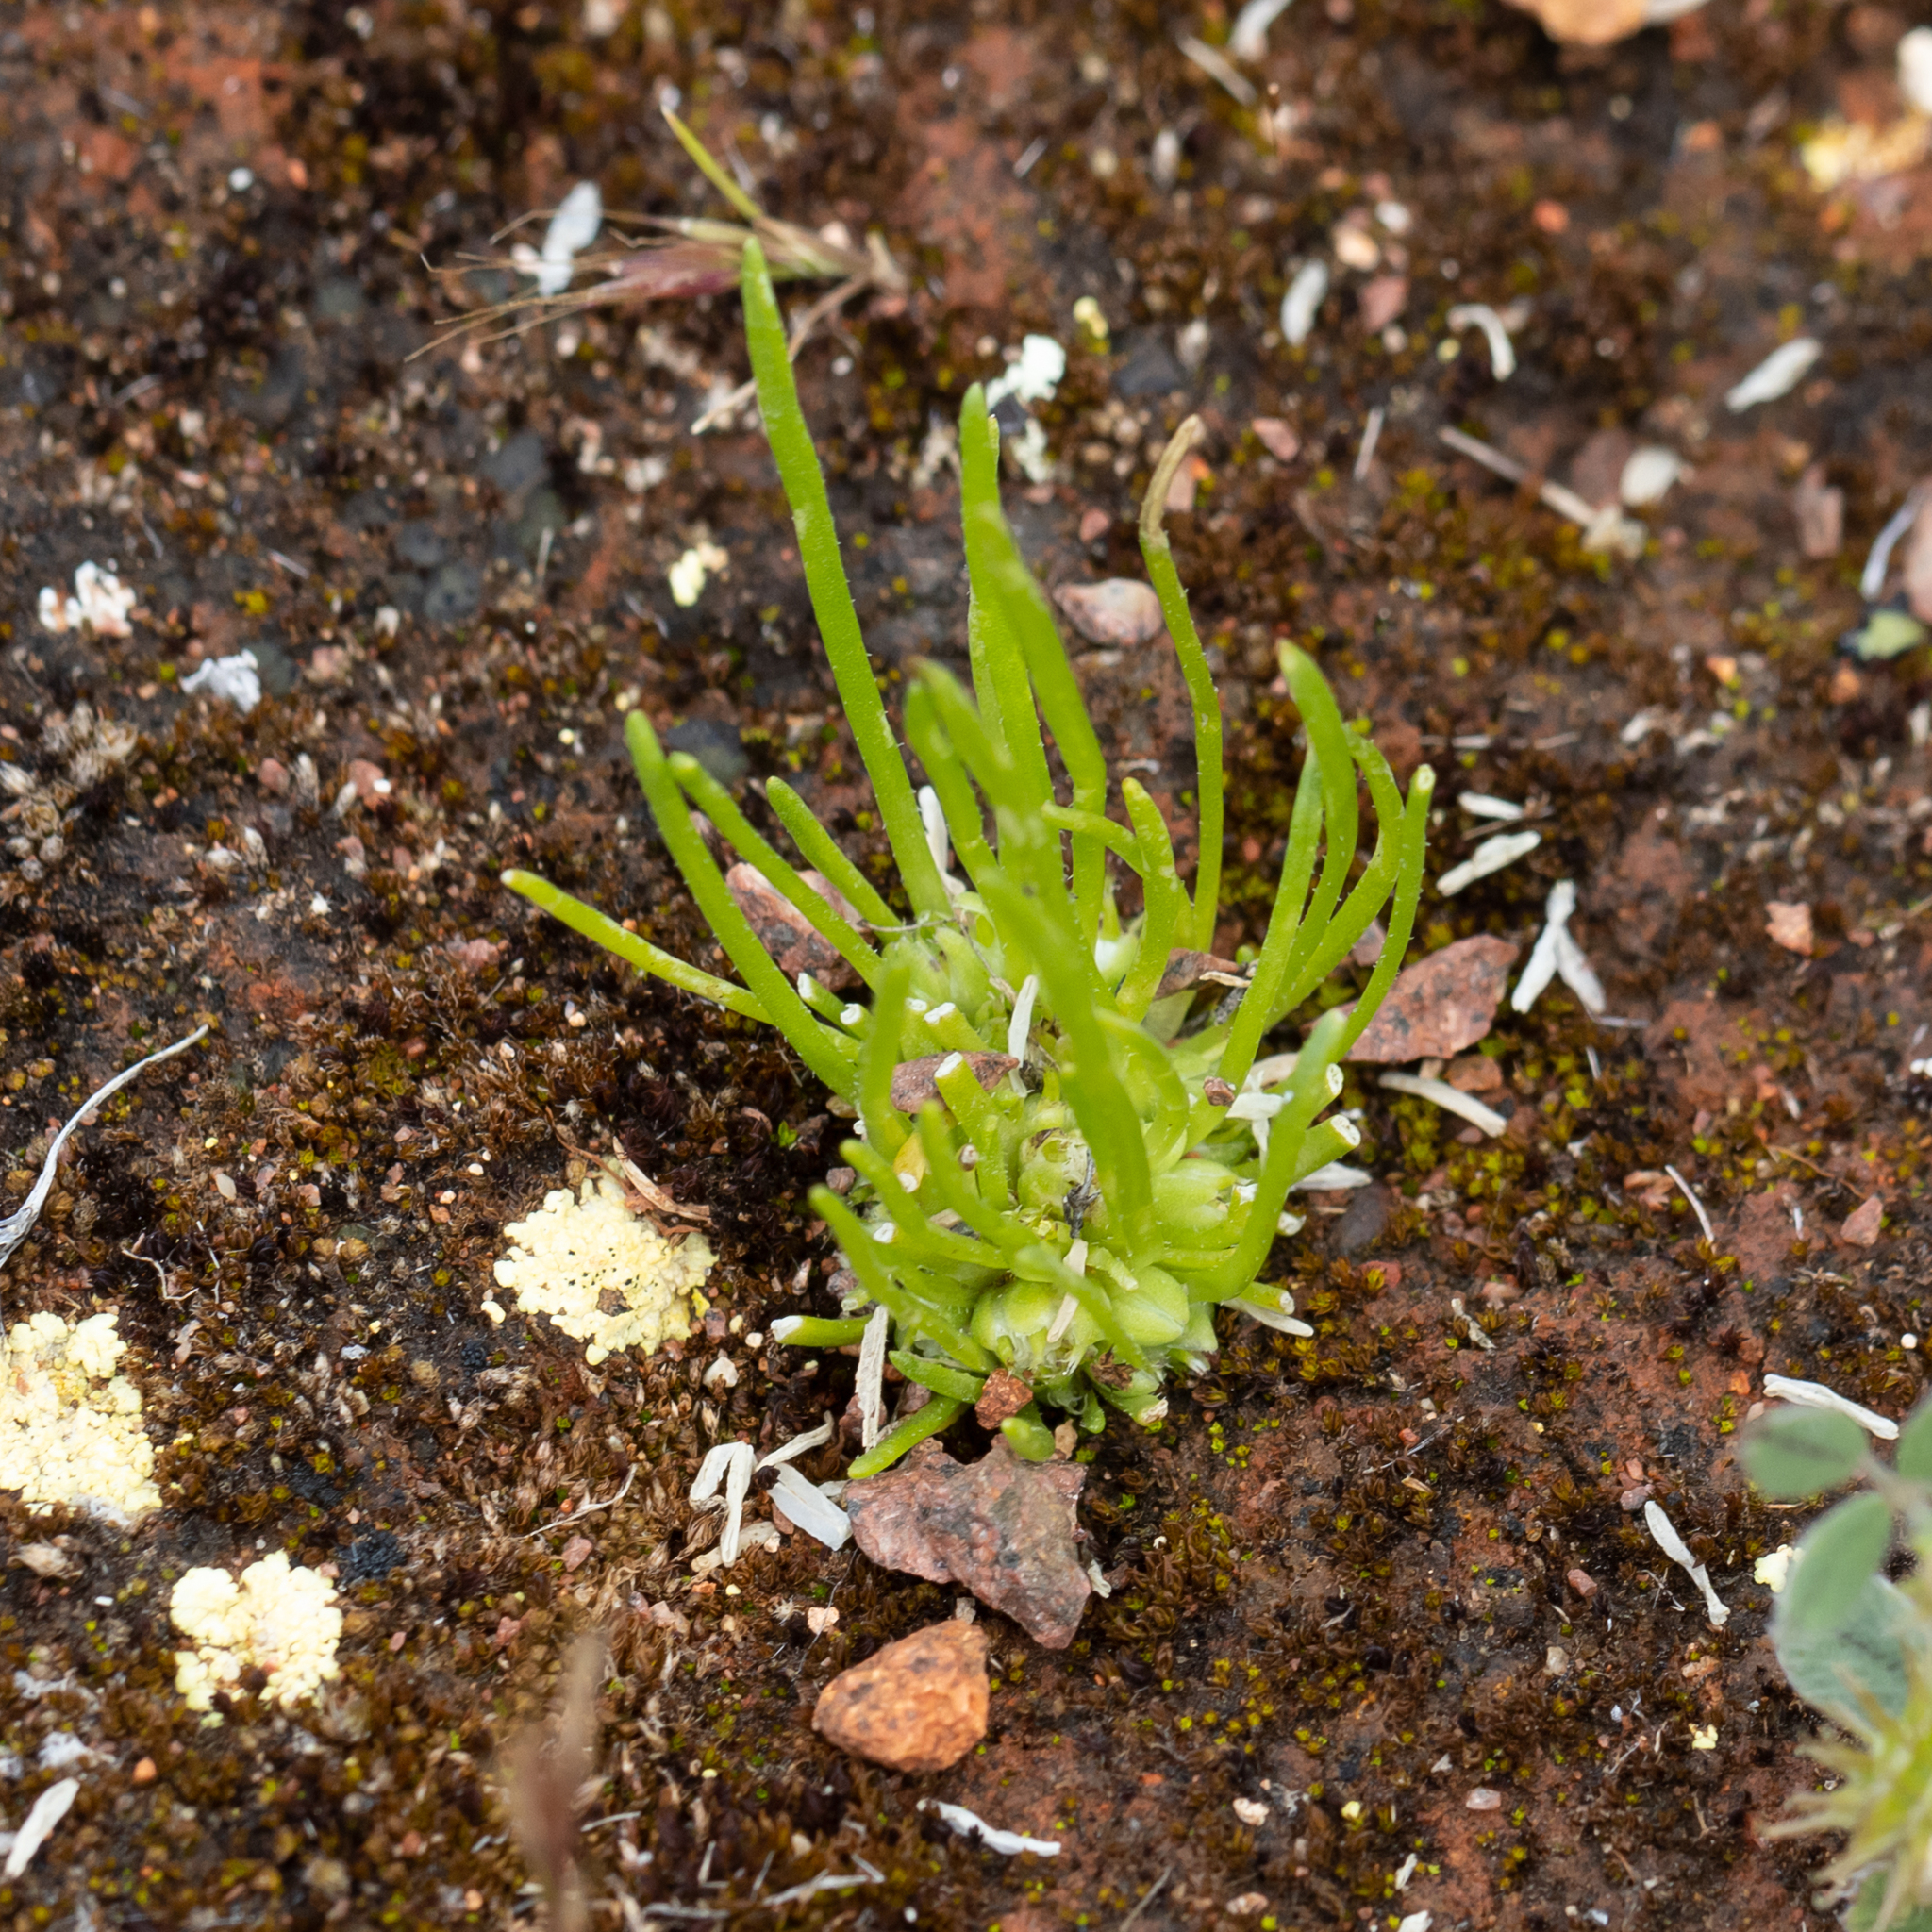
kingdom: Plantae
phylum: Tracheophyta
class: Magnoliopsida
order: Asterales
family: Asteraceae
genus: Isoetopsis
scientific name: Isoetopsis graminifolia
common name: Grass-cushion
